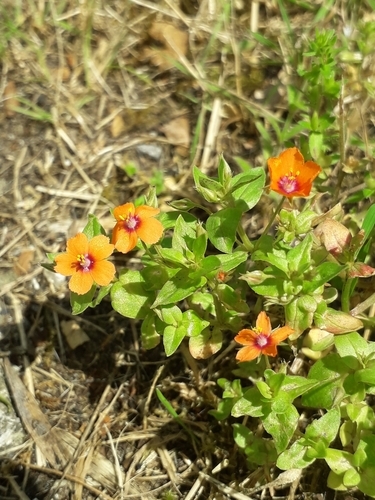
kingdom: Plantae
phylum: Tracheophyta
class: Magnoliopsida
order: Ericales
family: Primulaceae
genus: Lysimachia
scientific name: Lysimachia arvensis
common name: Scarlet pimpernel
